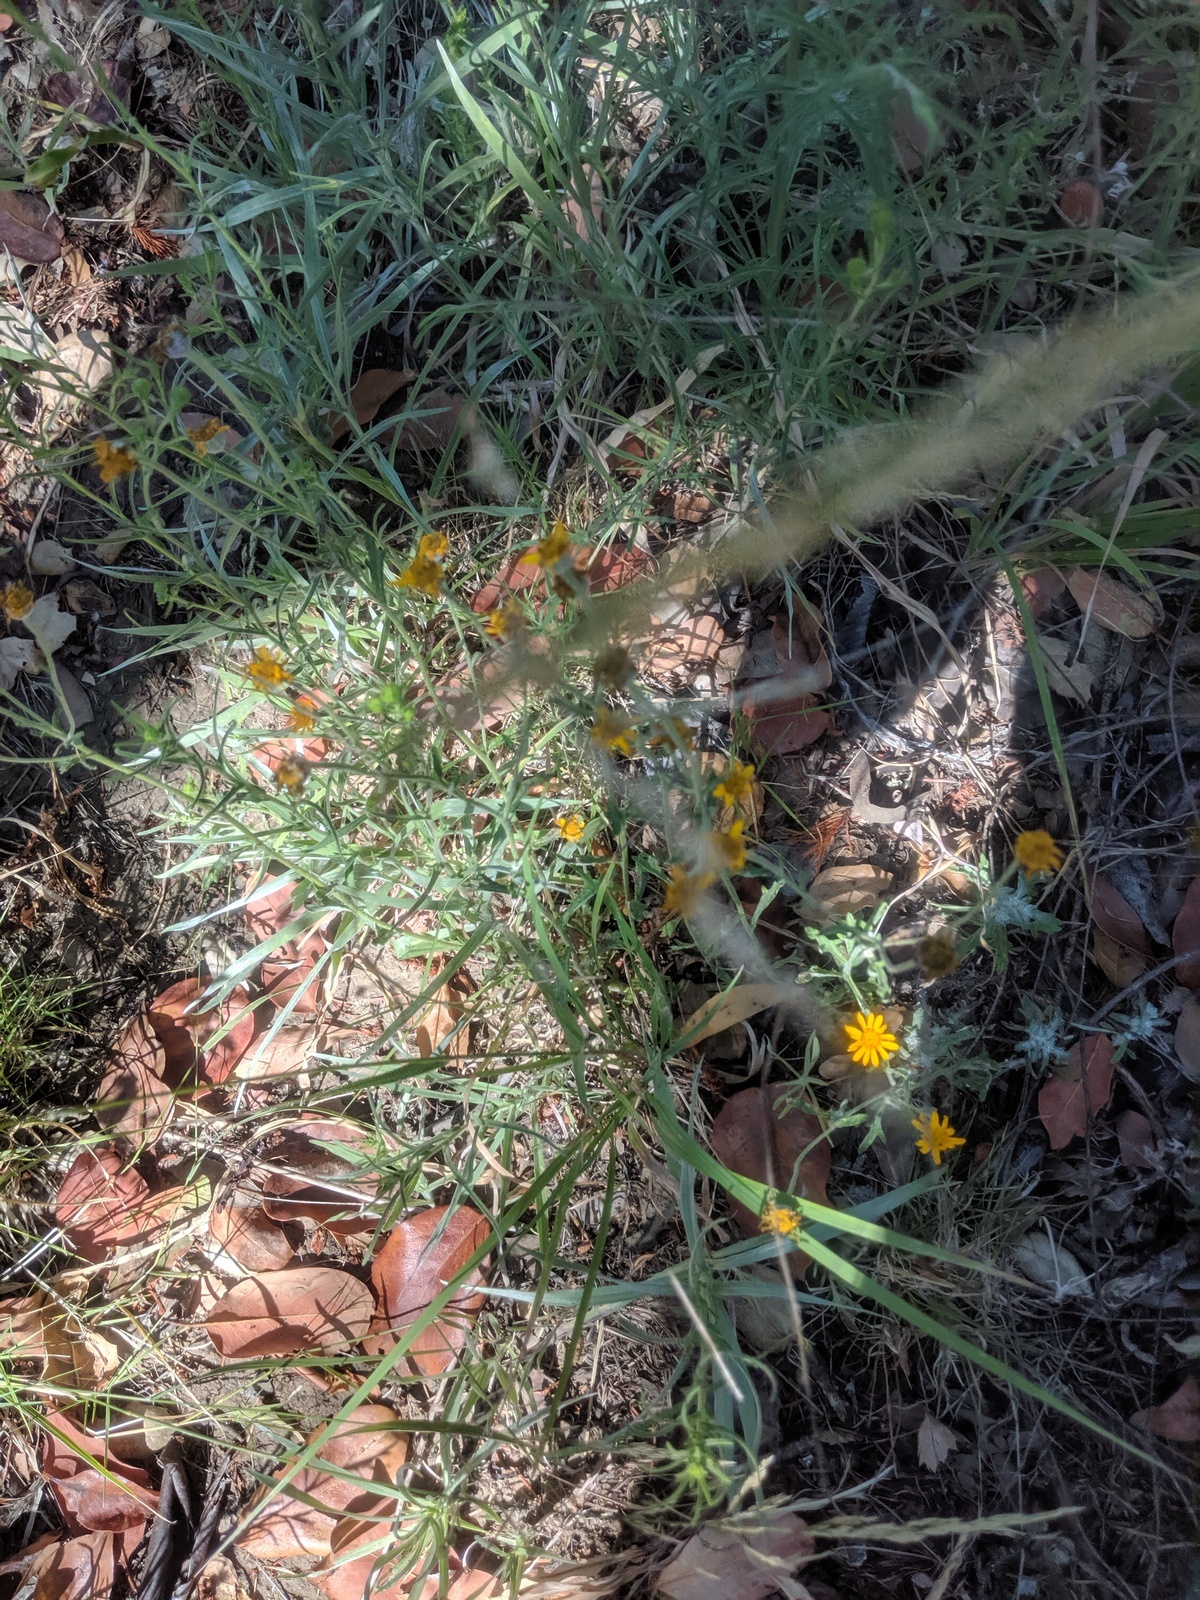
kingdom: Plantae
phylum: Tracheophyta
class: Magnoliopsida
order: Asterales
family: Asteraceae
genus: Eriophyllum
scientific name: Eriophyllum lanatum
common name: Common woolly-sunflower
